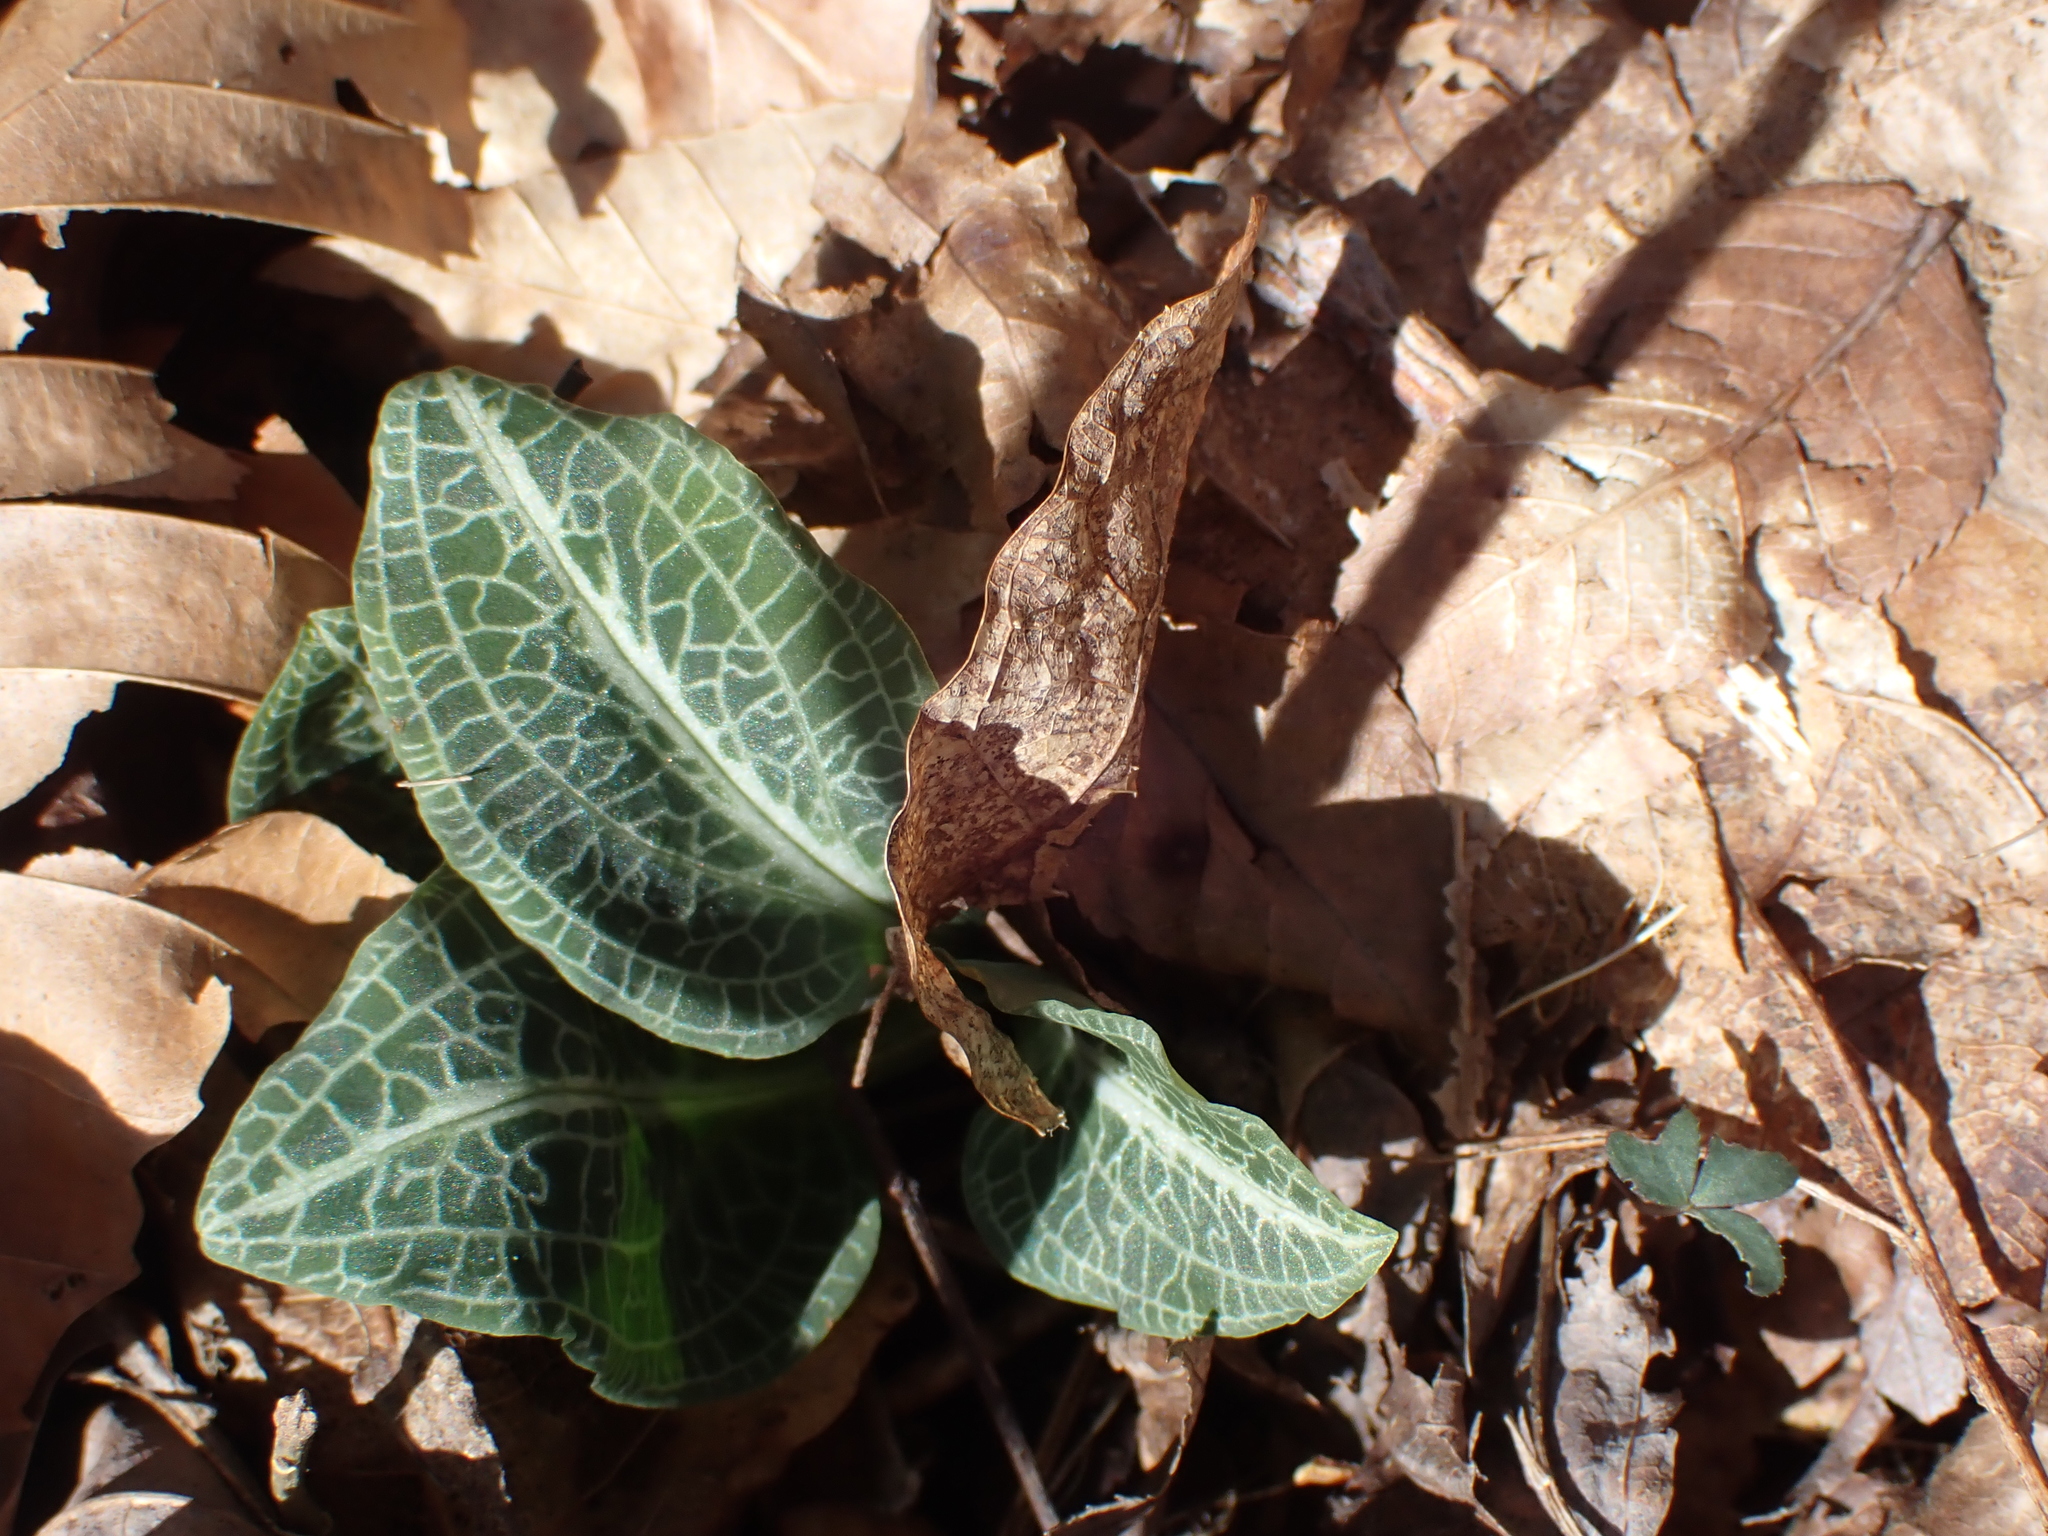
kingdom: Plantae
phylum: Tracheophyta
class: Liliopsida
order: Asparagales
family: Orchidaceae
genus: Goodyera
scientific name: Goodyera pubescens
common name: Downy rattlesnake-plantain
